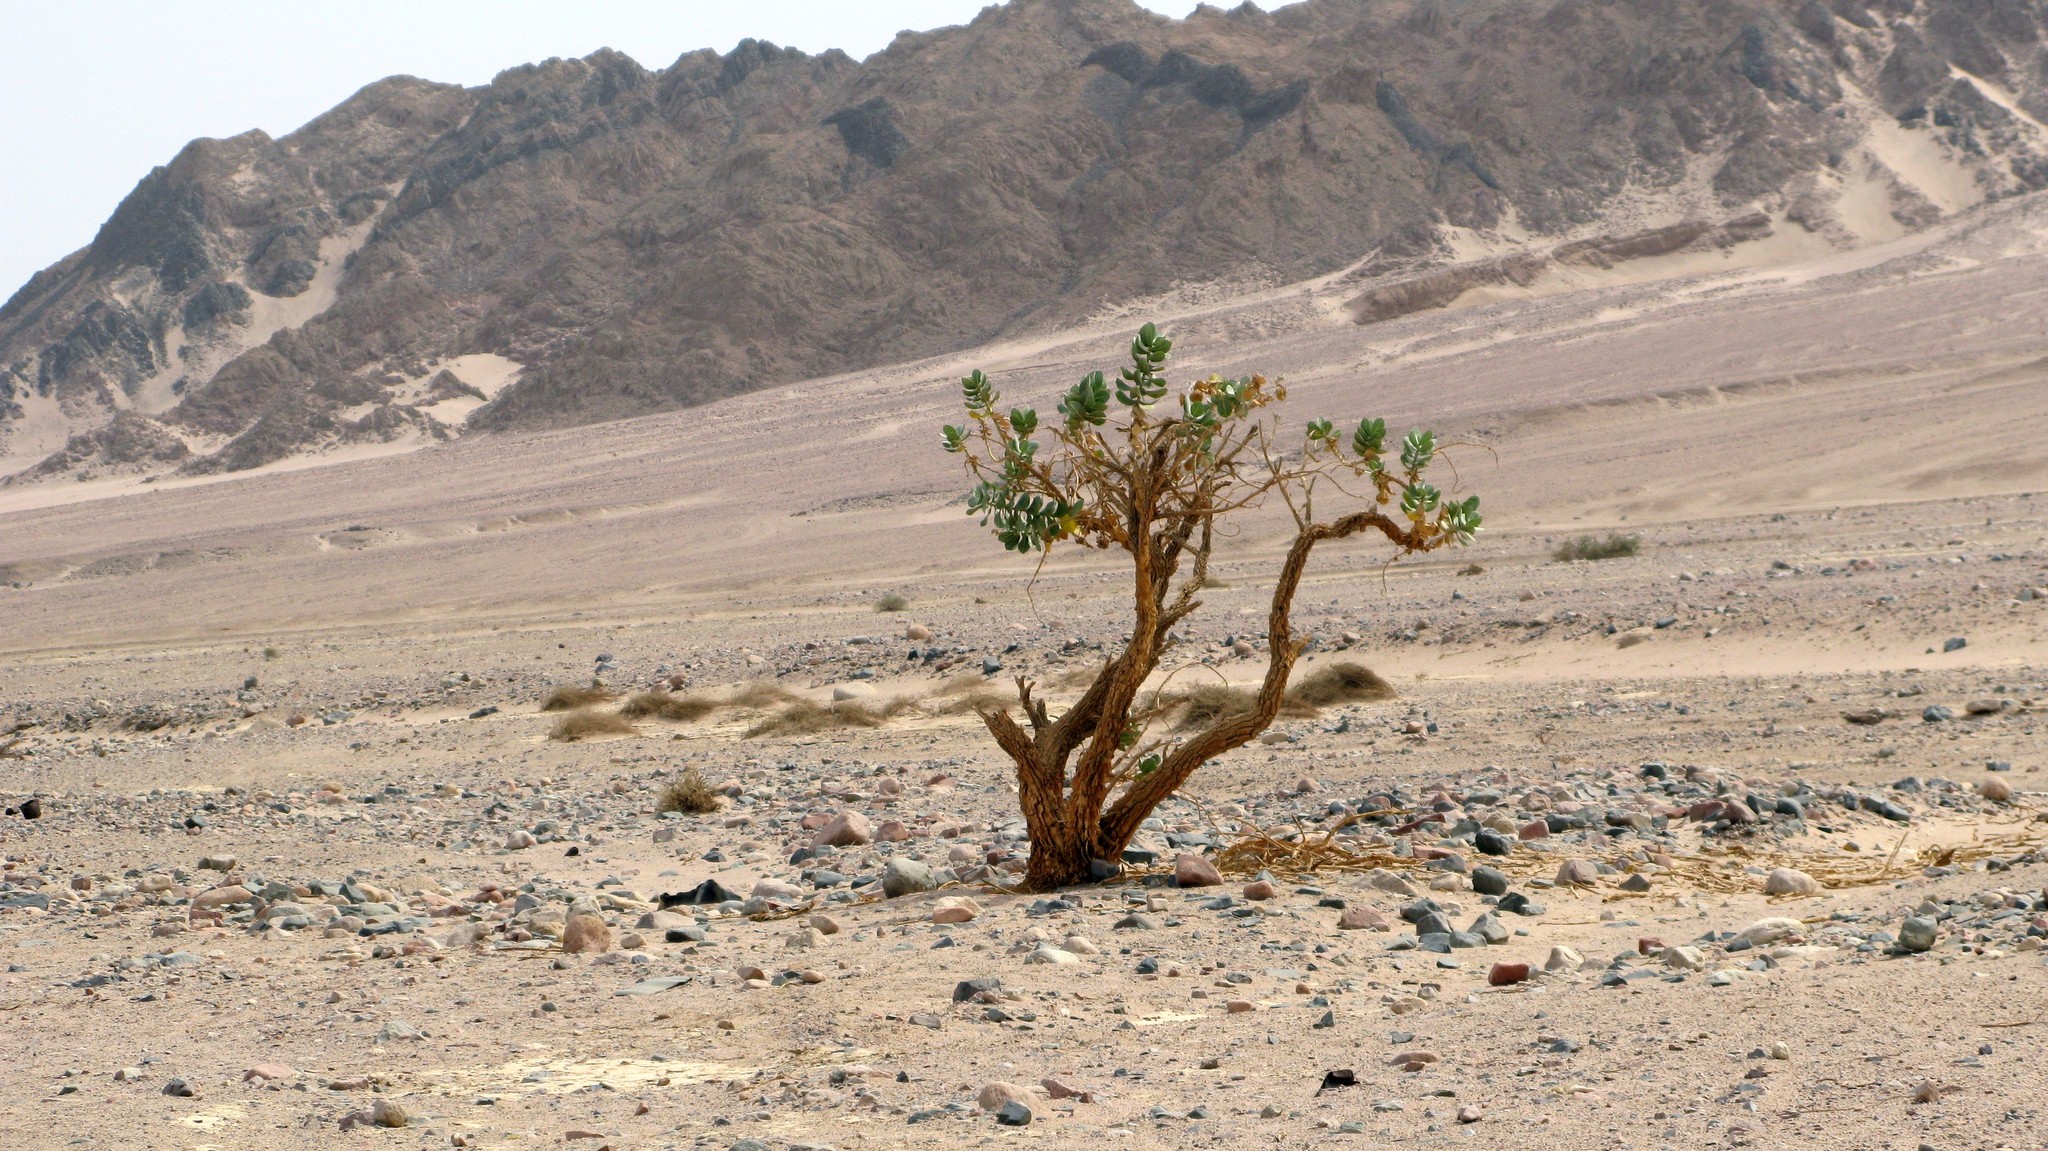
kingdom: Plantae
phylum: Tracheophyta
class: Magnoliopsida
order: Gentianales
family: Apocynaceae
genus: Calotropis
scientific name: Calotropis procera
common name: Roostertree
